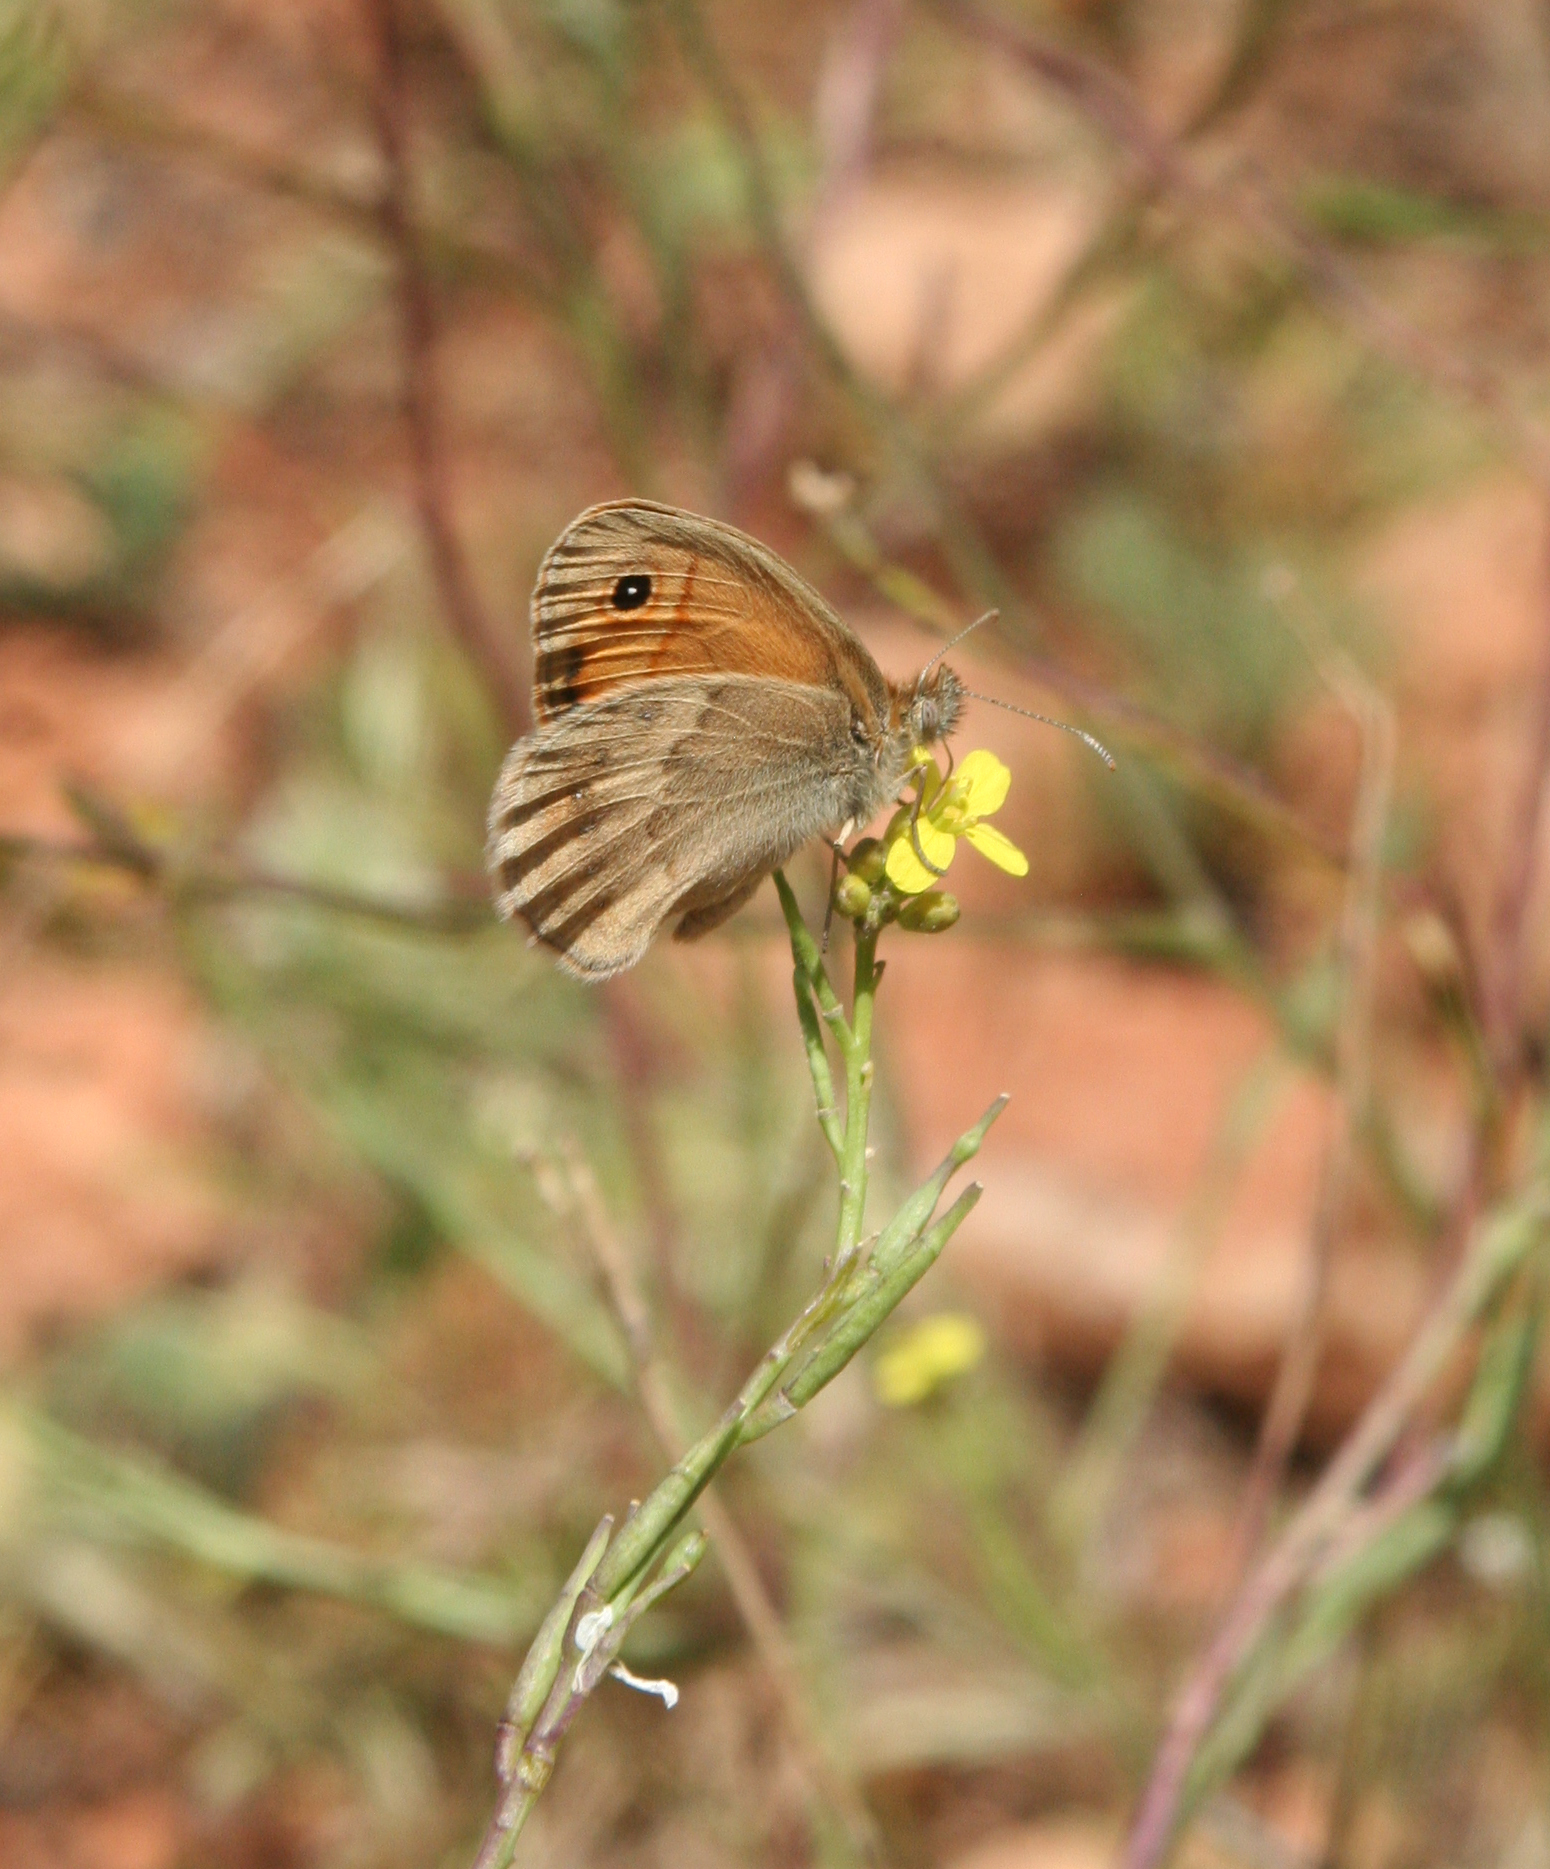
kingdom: Animalia
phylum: Arthropoda
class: Insecta
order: Lepidoptera
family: Nymphalidae
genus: Coenonympha
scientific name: Coenonympha pamphilus
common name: Small heath
